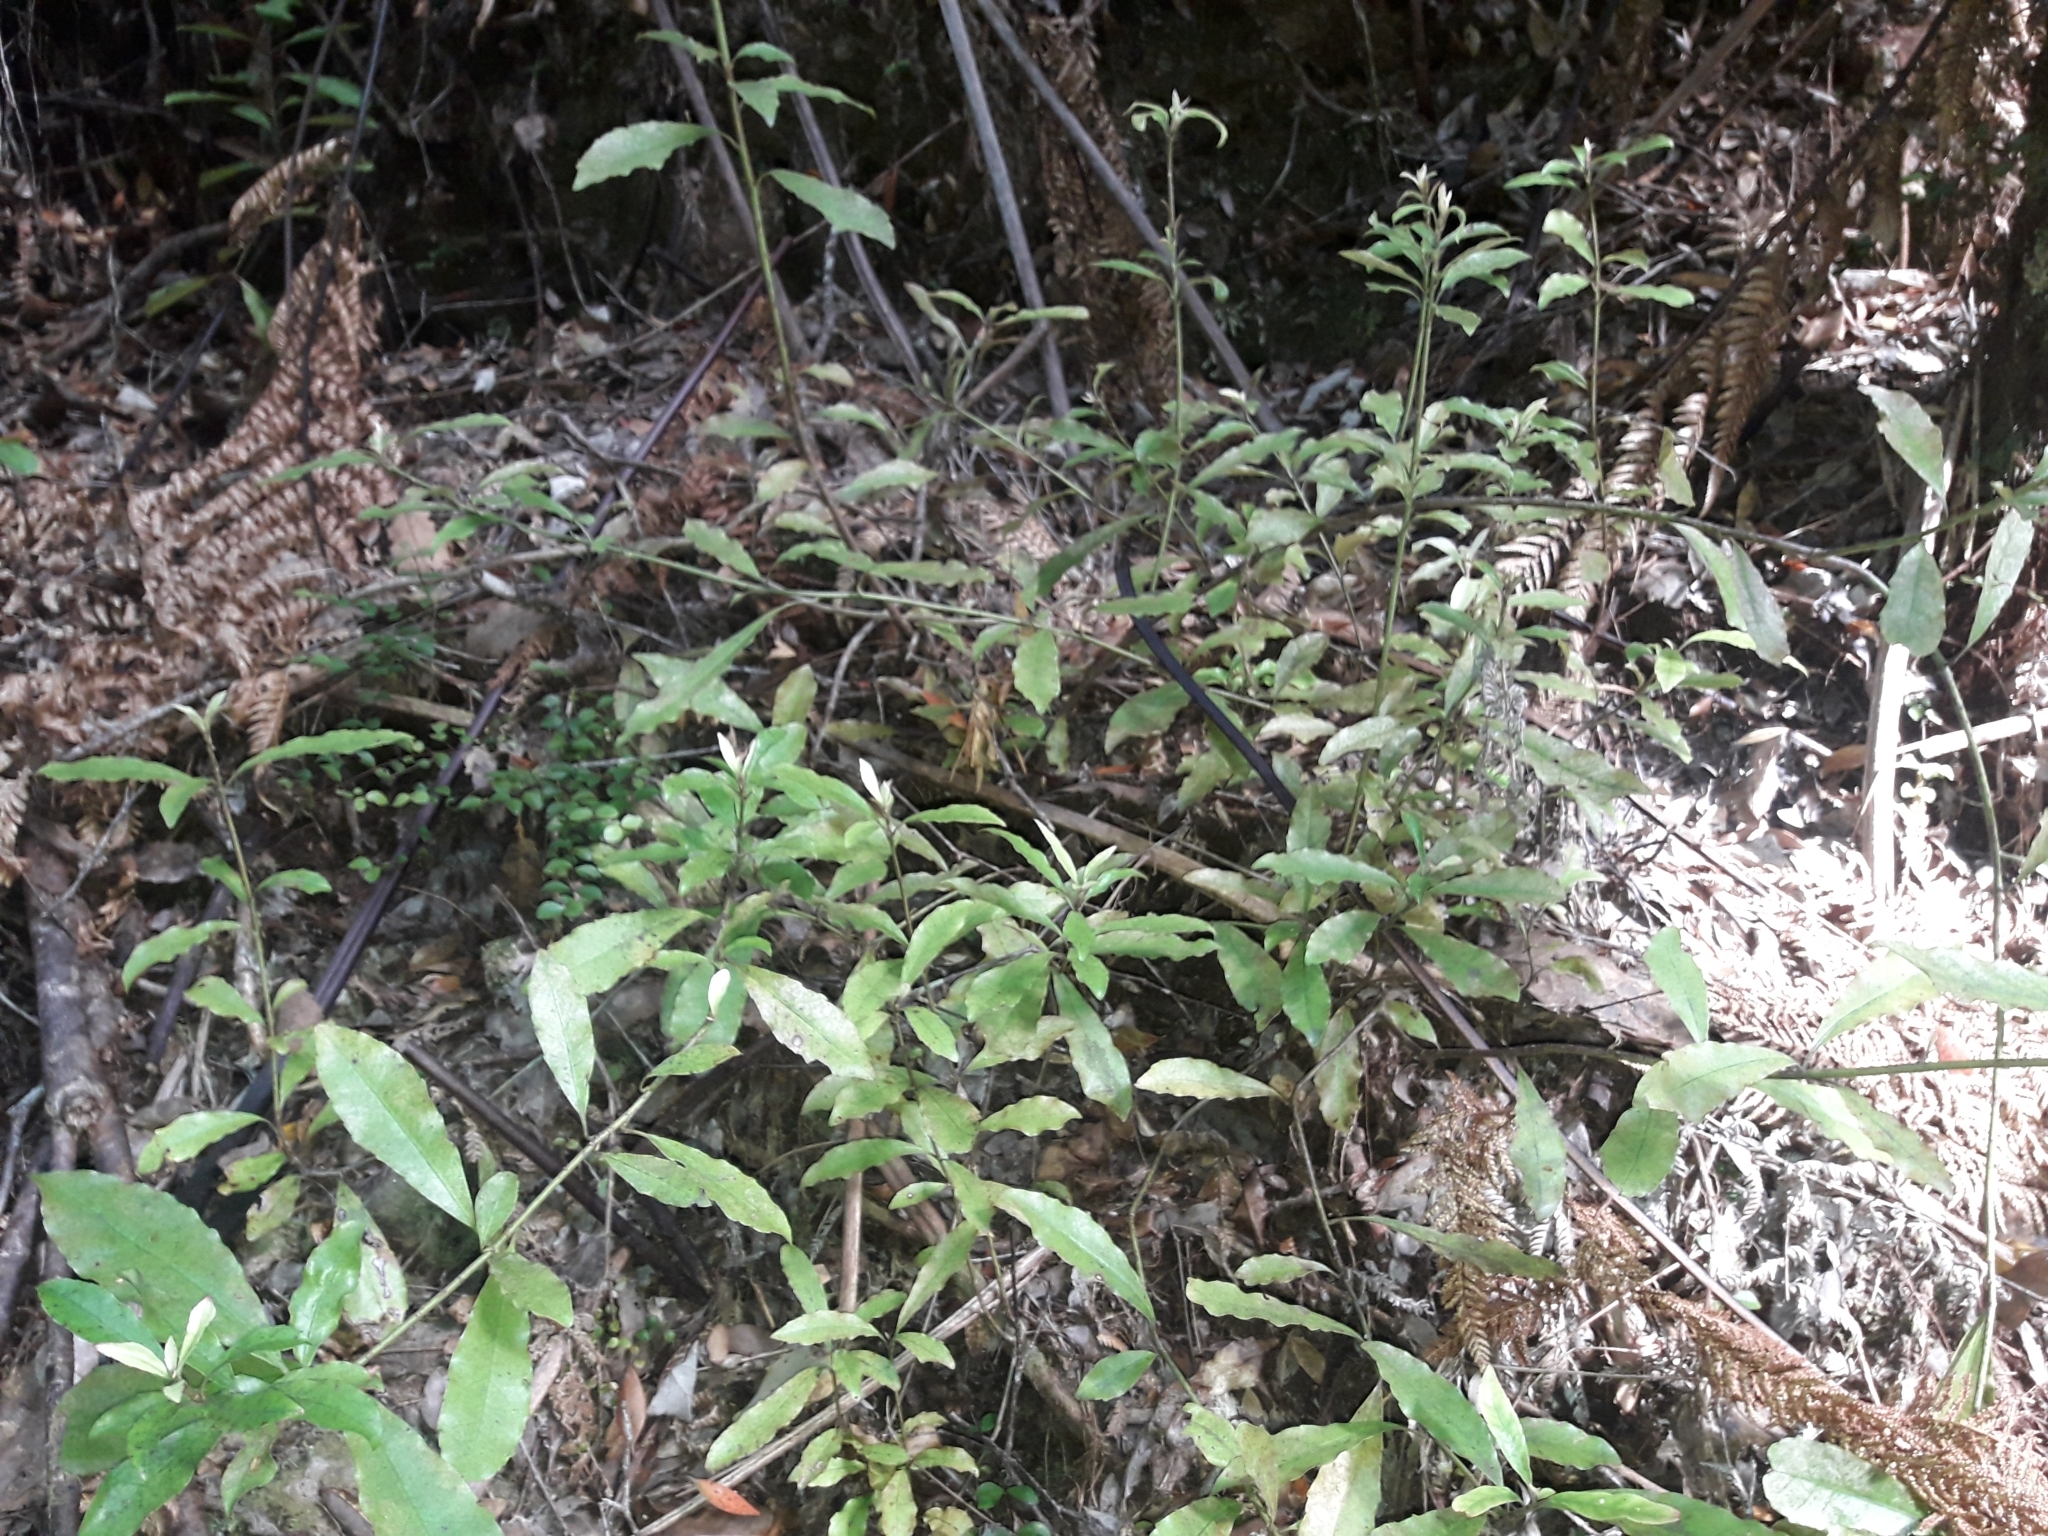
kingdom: Plantae
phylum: Tracheophyta
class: Magnoliopsida
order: Asterales
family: Alseuosmiaceae
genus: Alseuosmia
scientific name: Alseuosmia macrophylla
